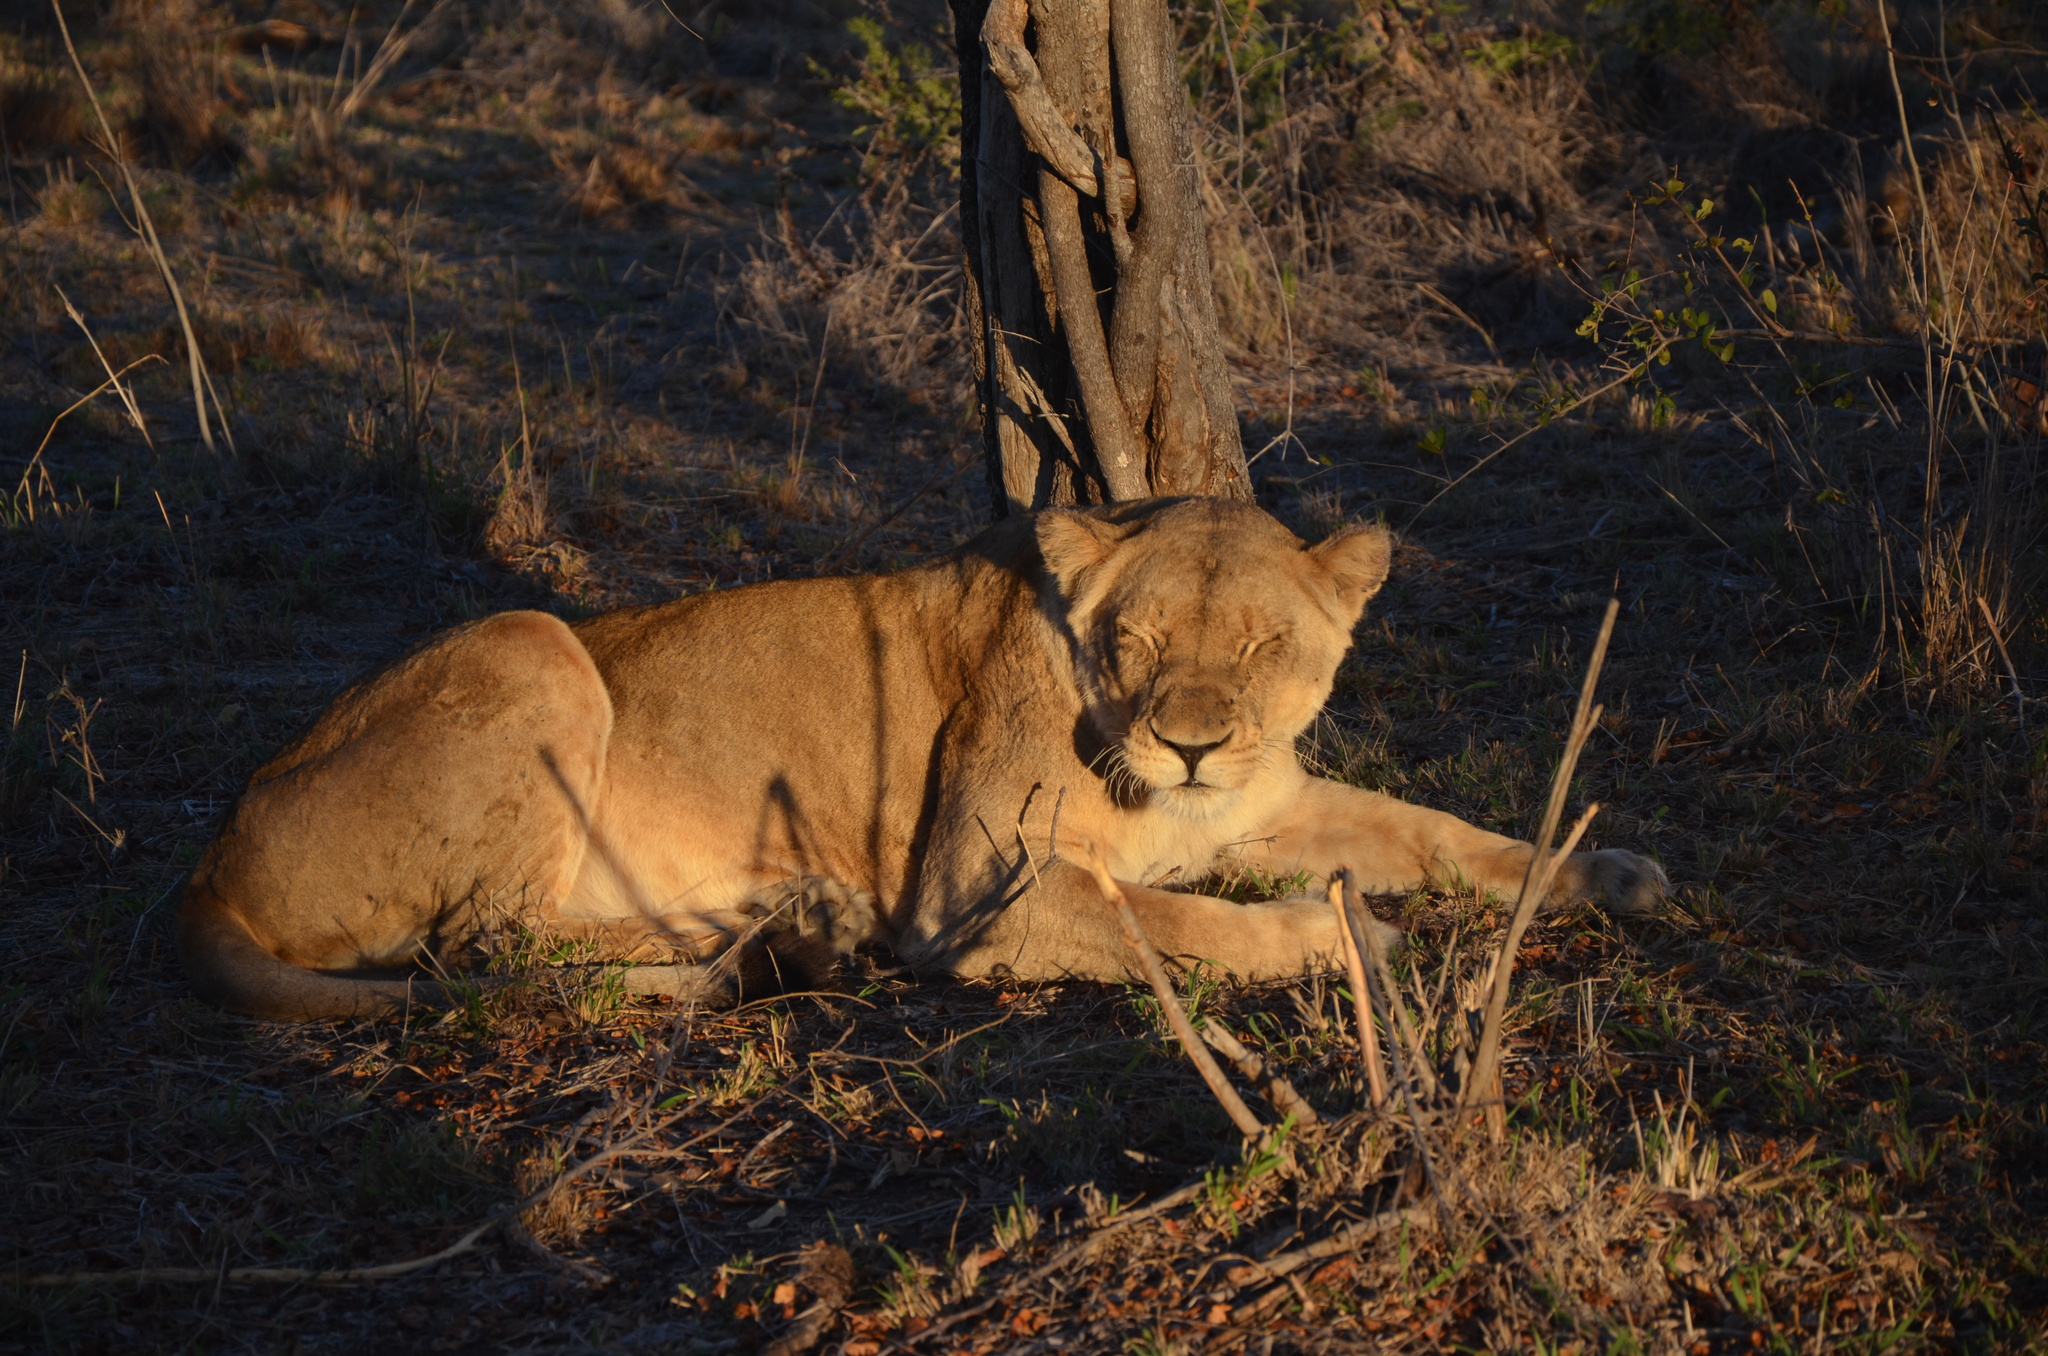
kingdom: Animalia
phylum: Chordata
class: Mammalia
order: Carnivora
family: Felidae
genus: Panthera
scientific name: Panthera leo
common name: Lion
